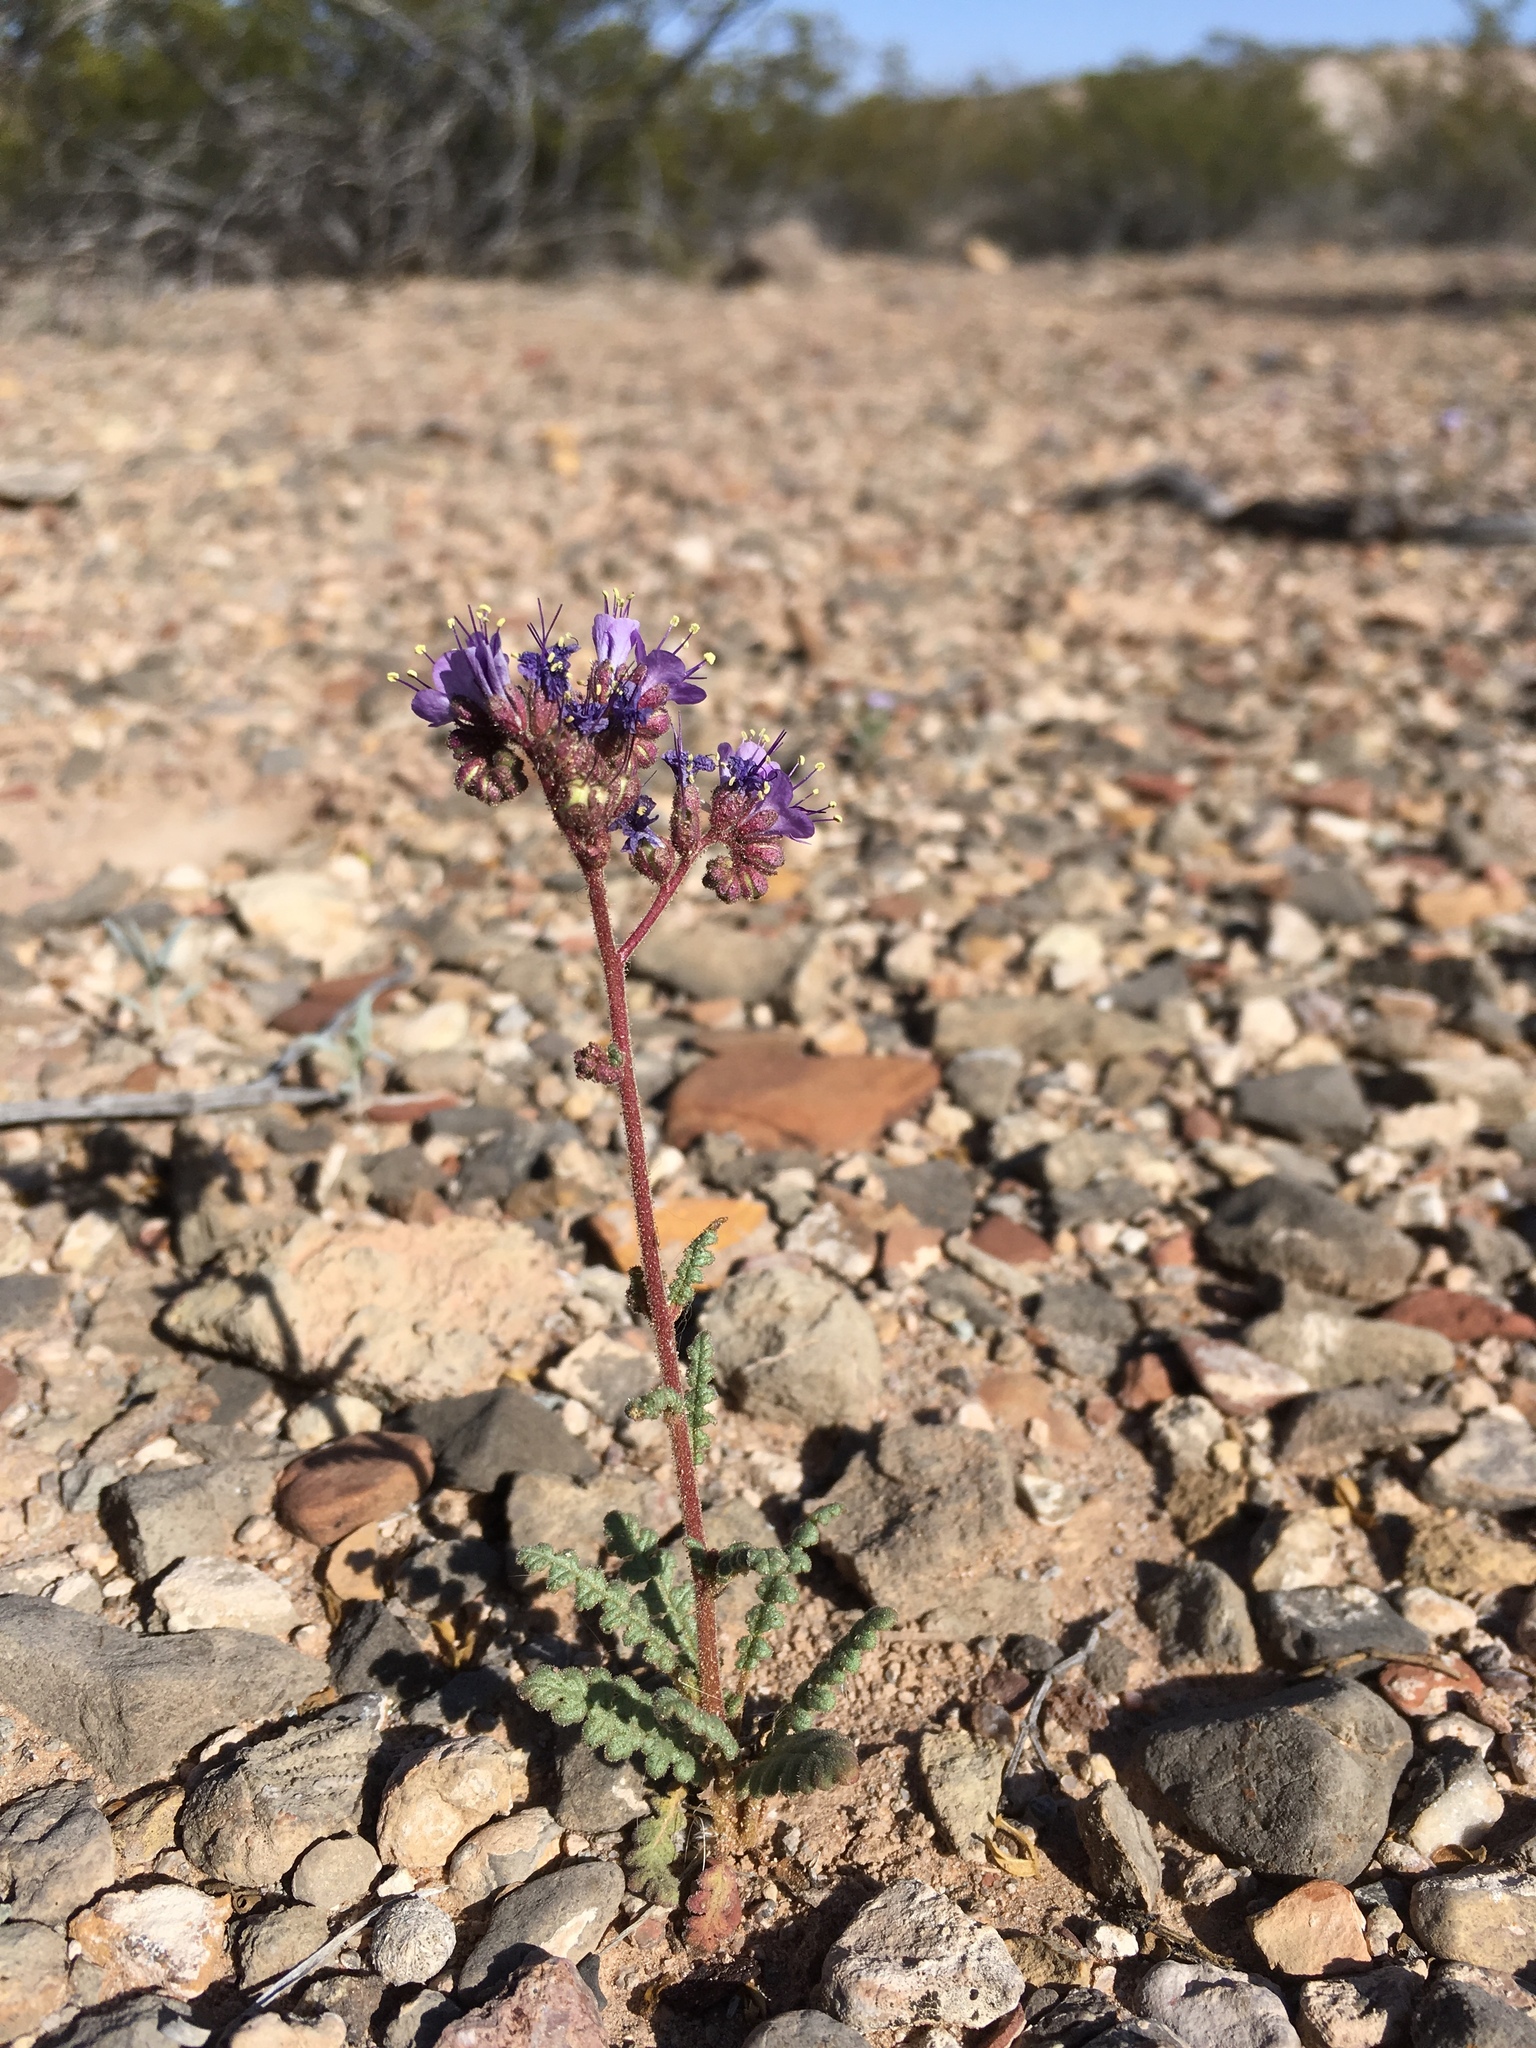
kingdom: Plantae
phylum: Tracheophyta
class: Magnoliopsida
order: Boraginales
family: Hydrophyllaceae
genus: Phacelia
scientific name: Phacelia crenulata
